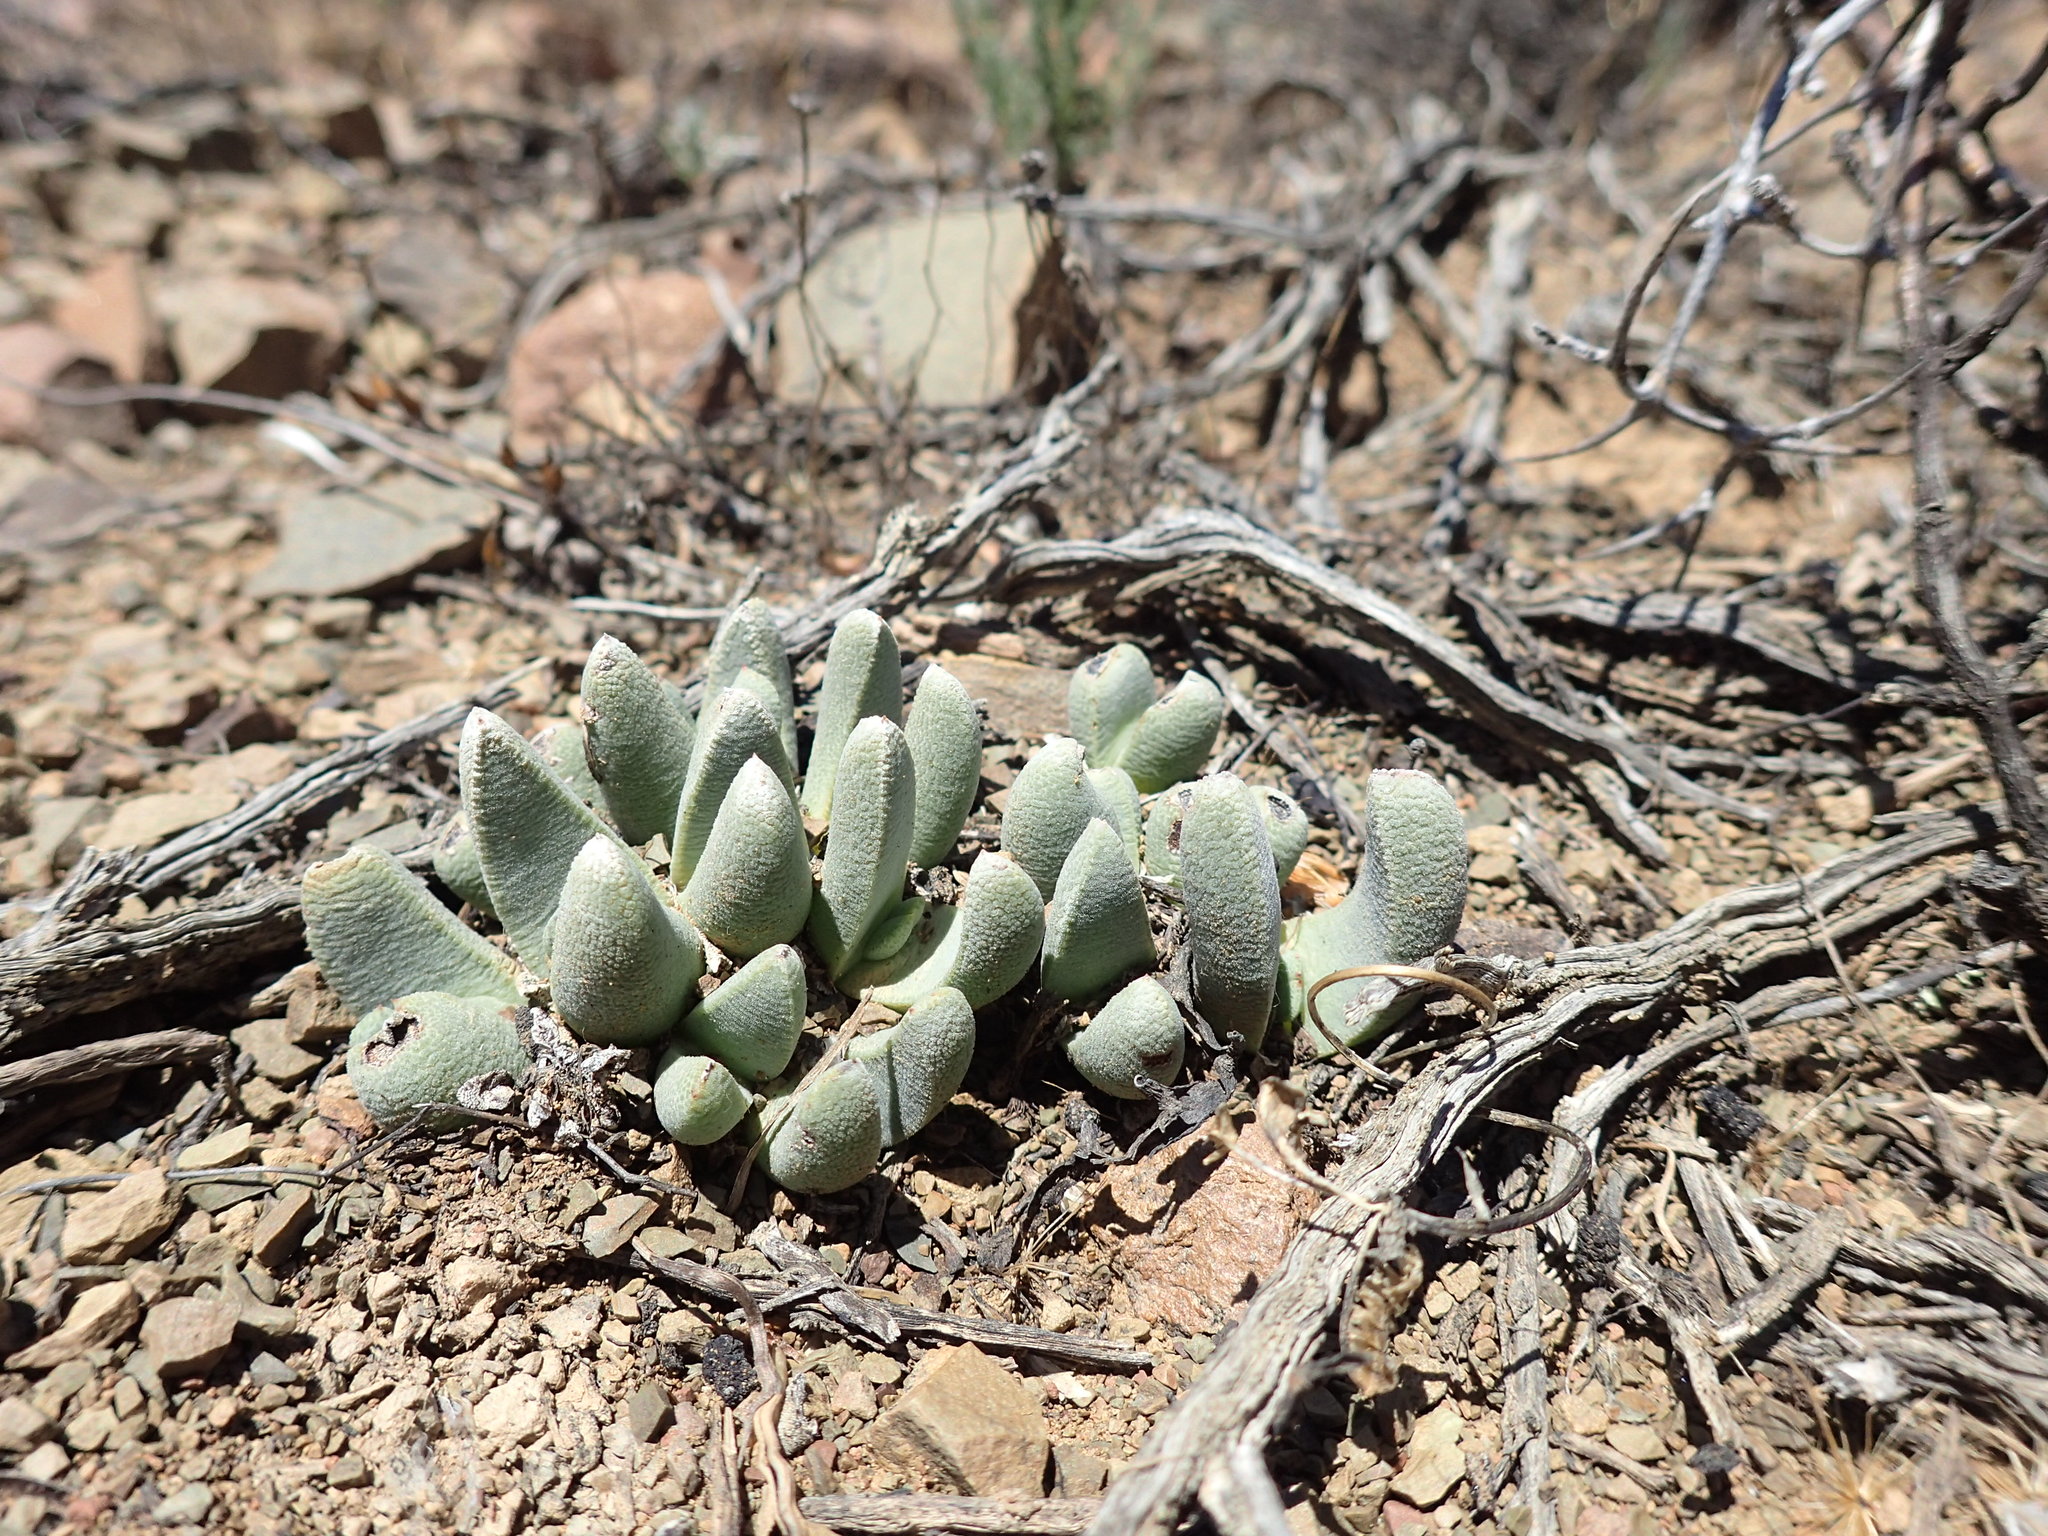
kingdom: Plantae
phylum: Tracheophyta
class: Magnoliopsida
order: Caryophyllales
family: Aizoaceae
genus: Pleiospilos
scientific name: Pleiospilos compactus
